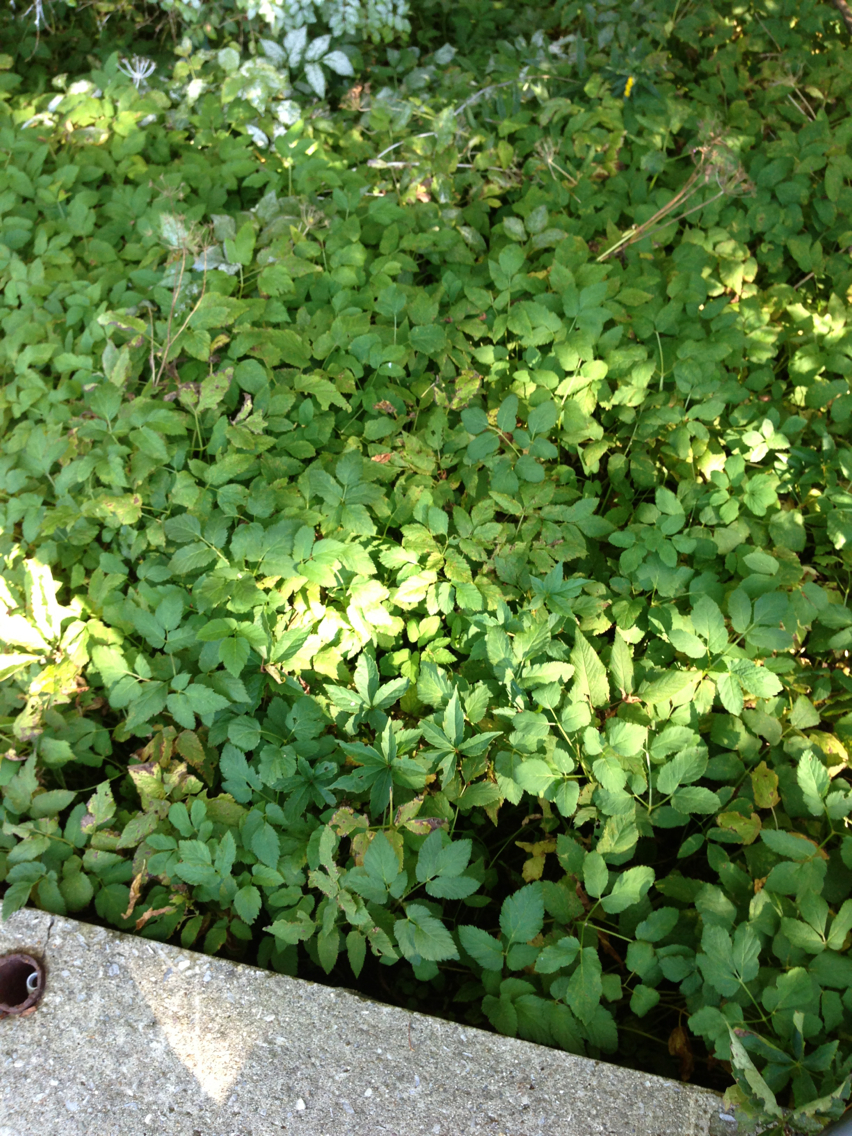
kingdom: Plantae
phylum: Tracheophyta
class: Magnoliopsida
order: Apiales
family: Apiaceae
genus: Aegopodium
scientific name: Aegopodium podagraria
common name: Ground-elder
